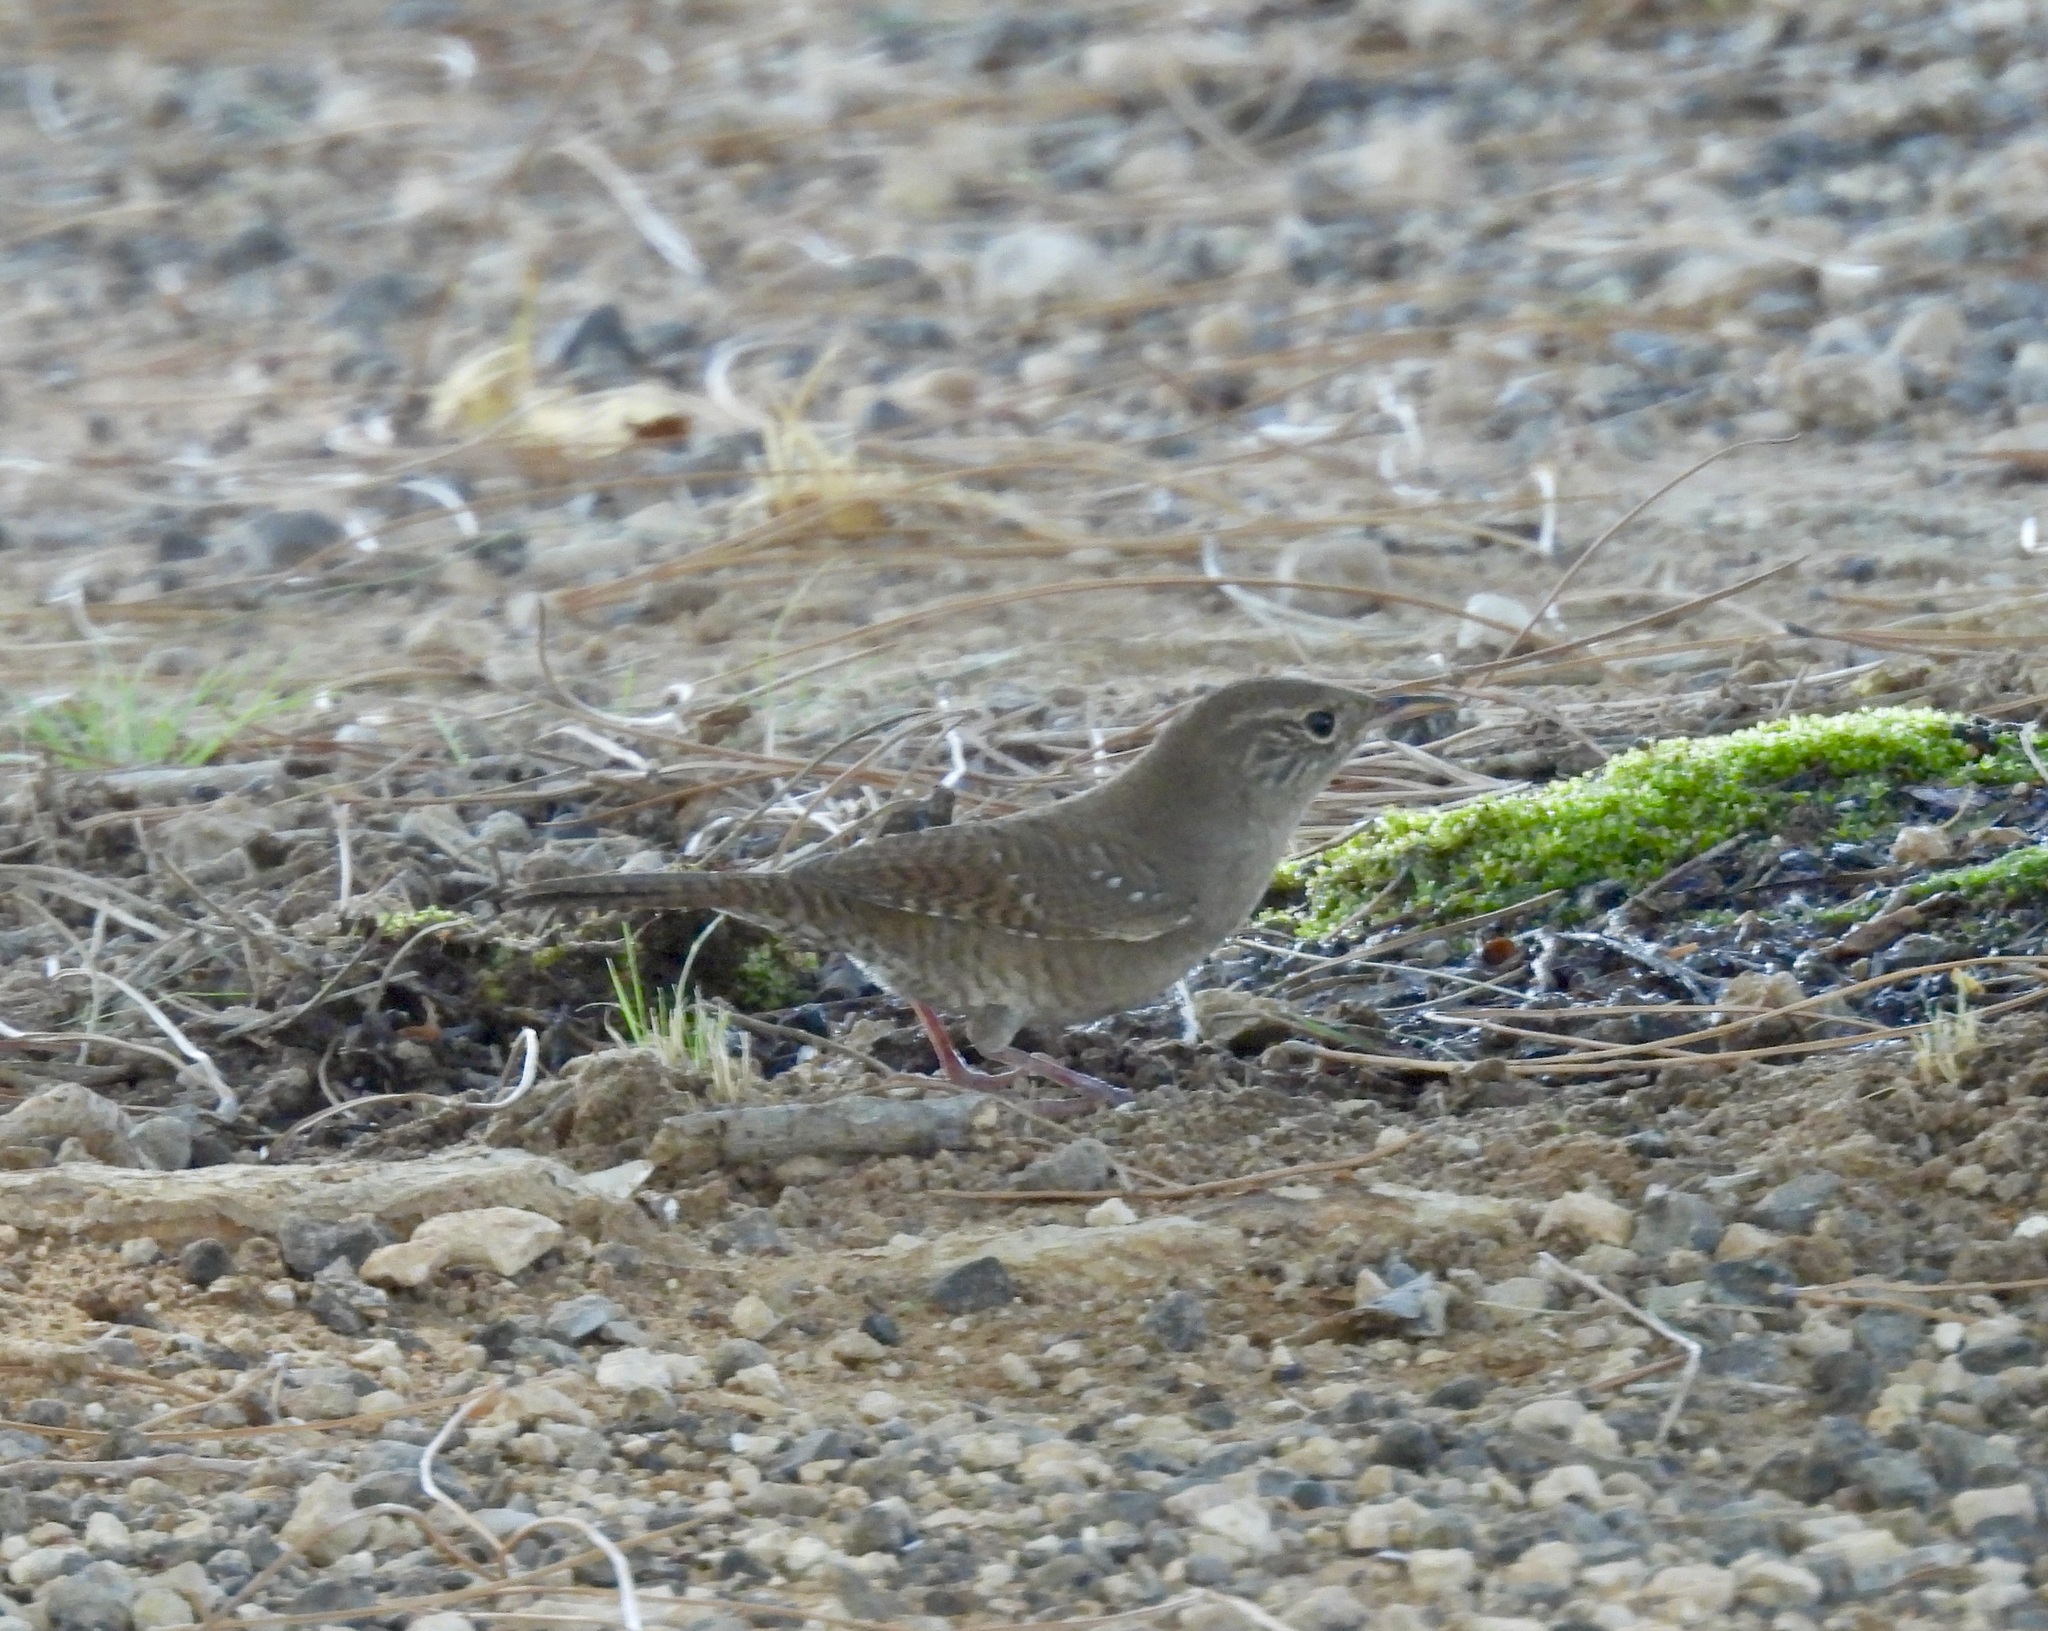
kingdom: Animalia
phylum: Chordata
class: Aves
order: Passeriformes
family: Troglodytidae
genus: Troglodytes
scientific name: Troglodytes aedon
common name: House wren
